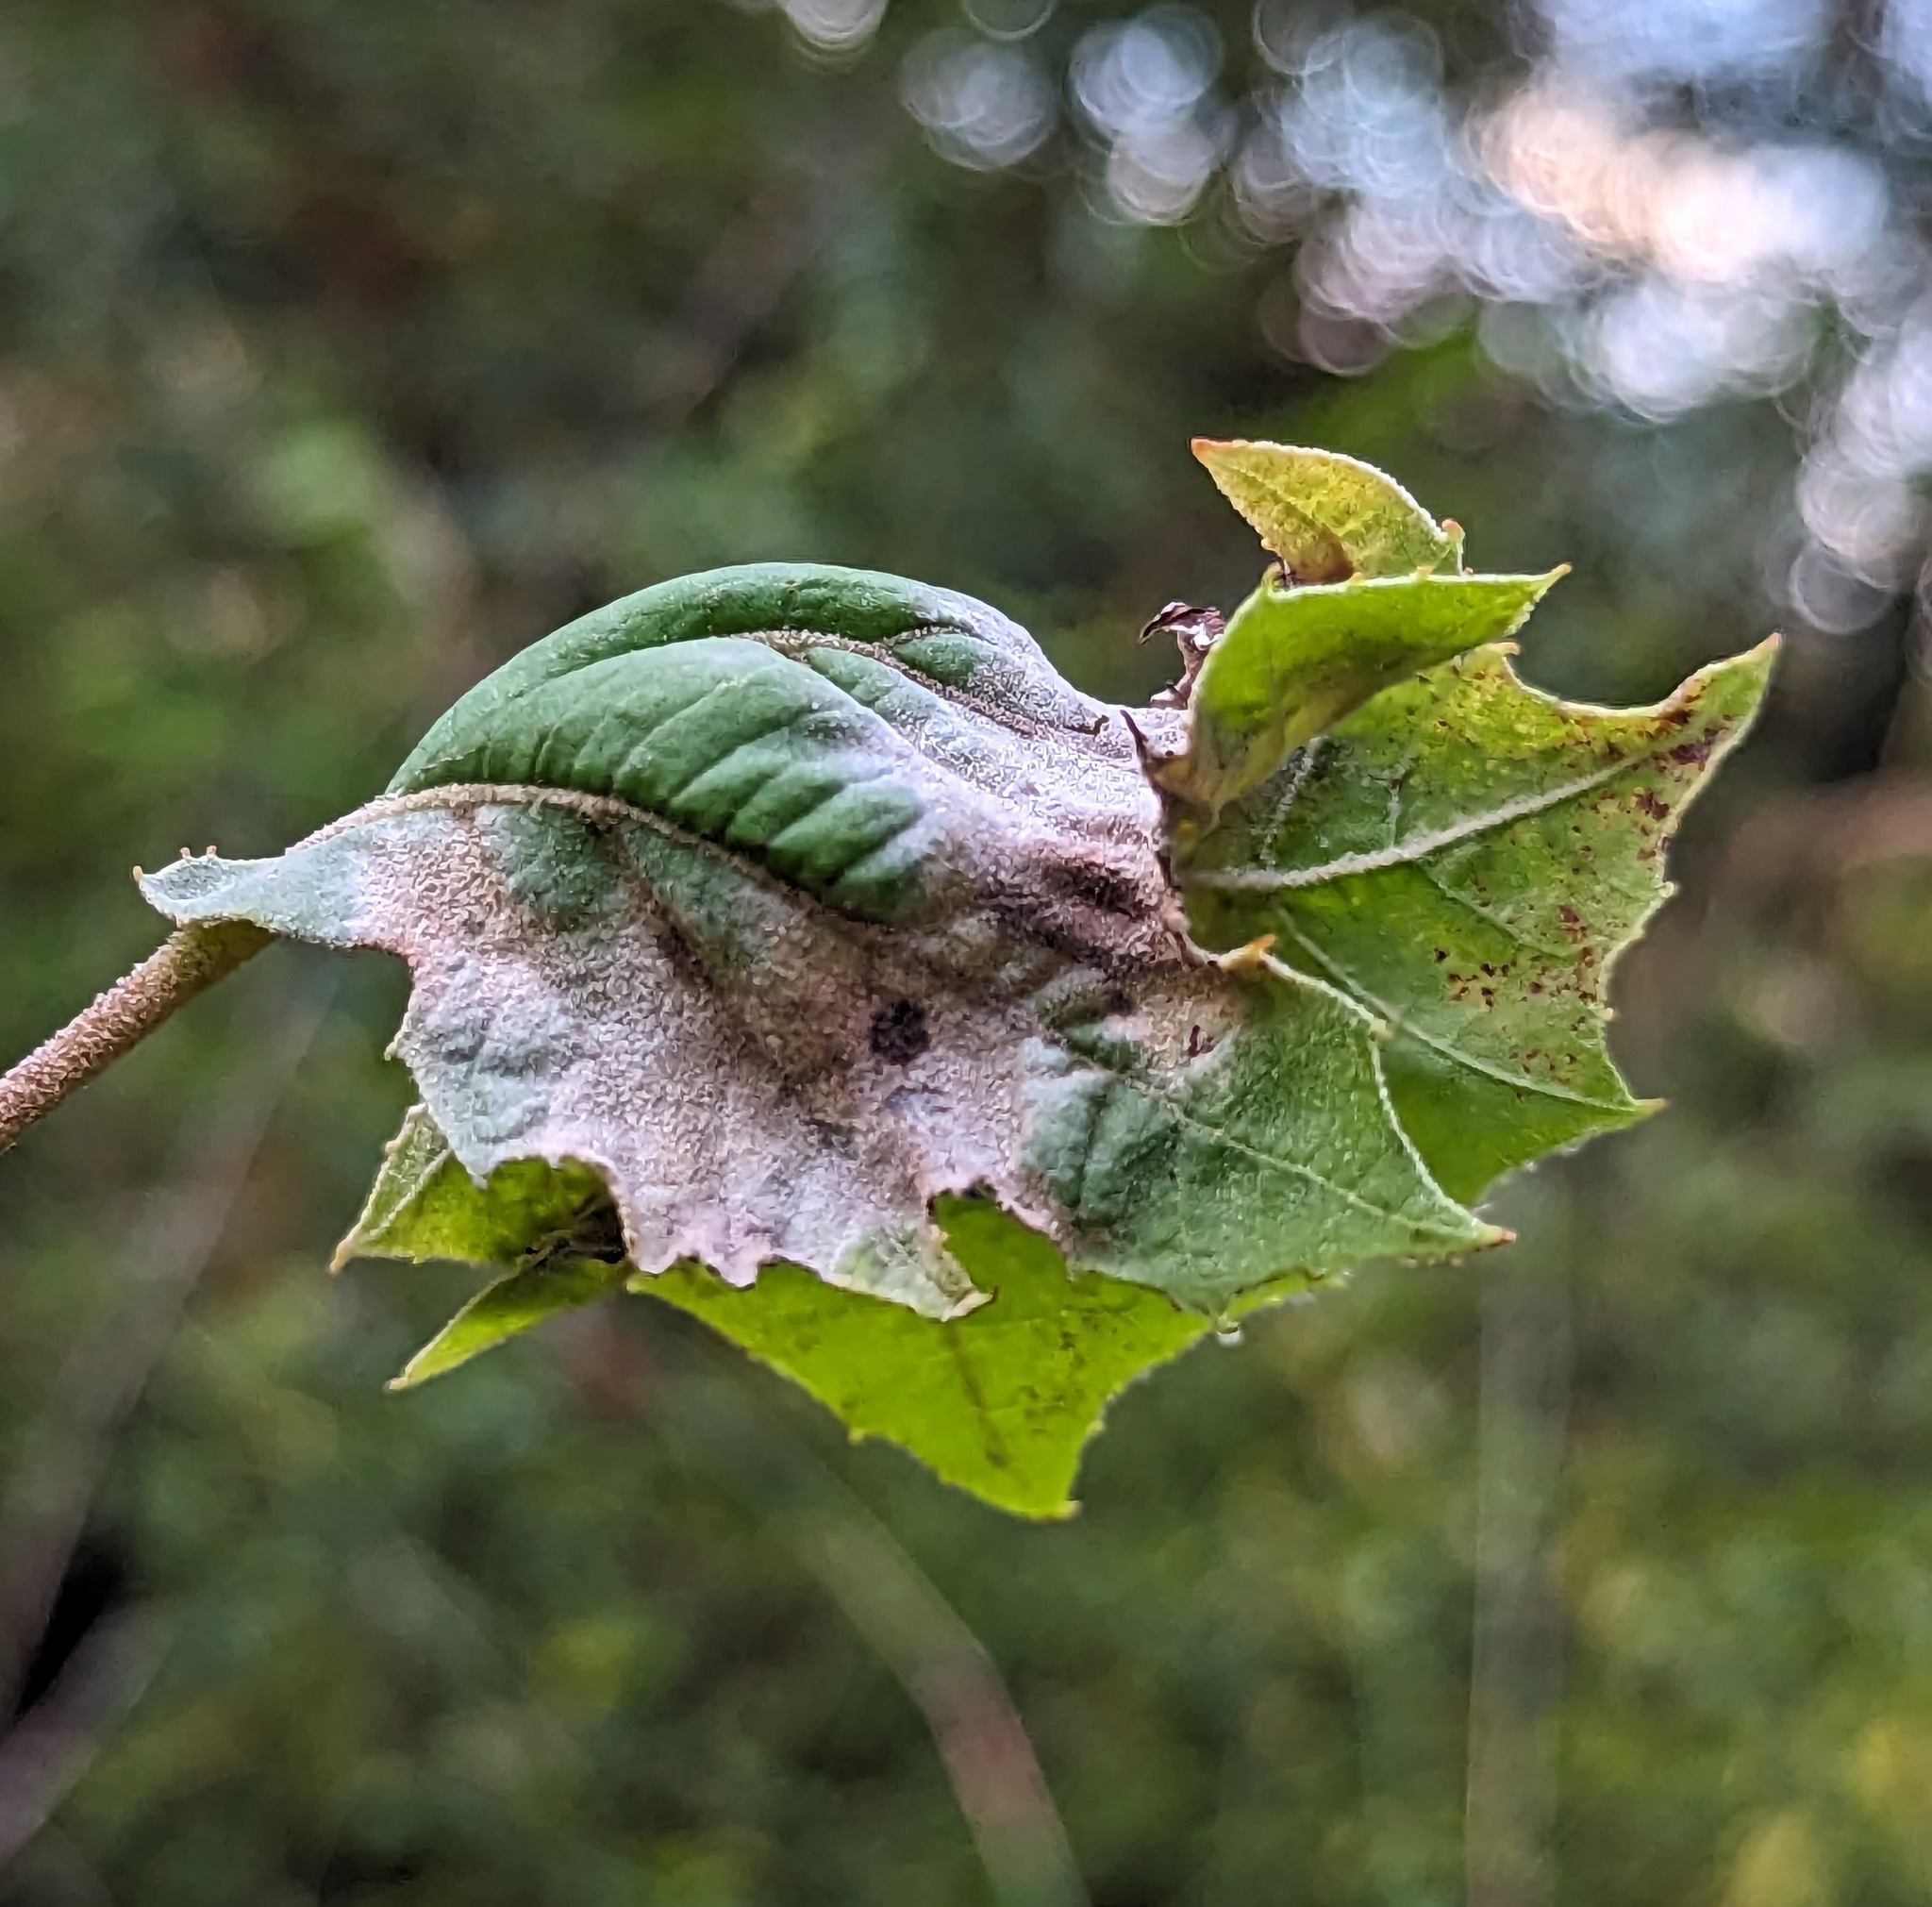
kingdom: Fungi
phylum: Ascomycota
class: Leotiomycetes
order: Helotiales
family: Erysiphaceae
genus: Erysiphe
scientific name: Erysiphe platani
